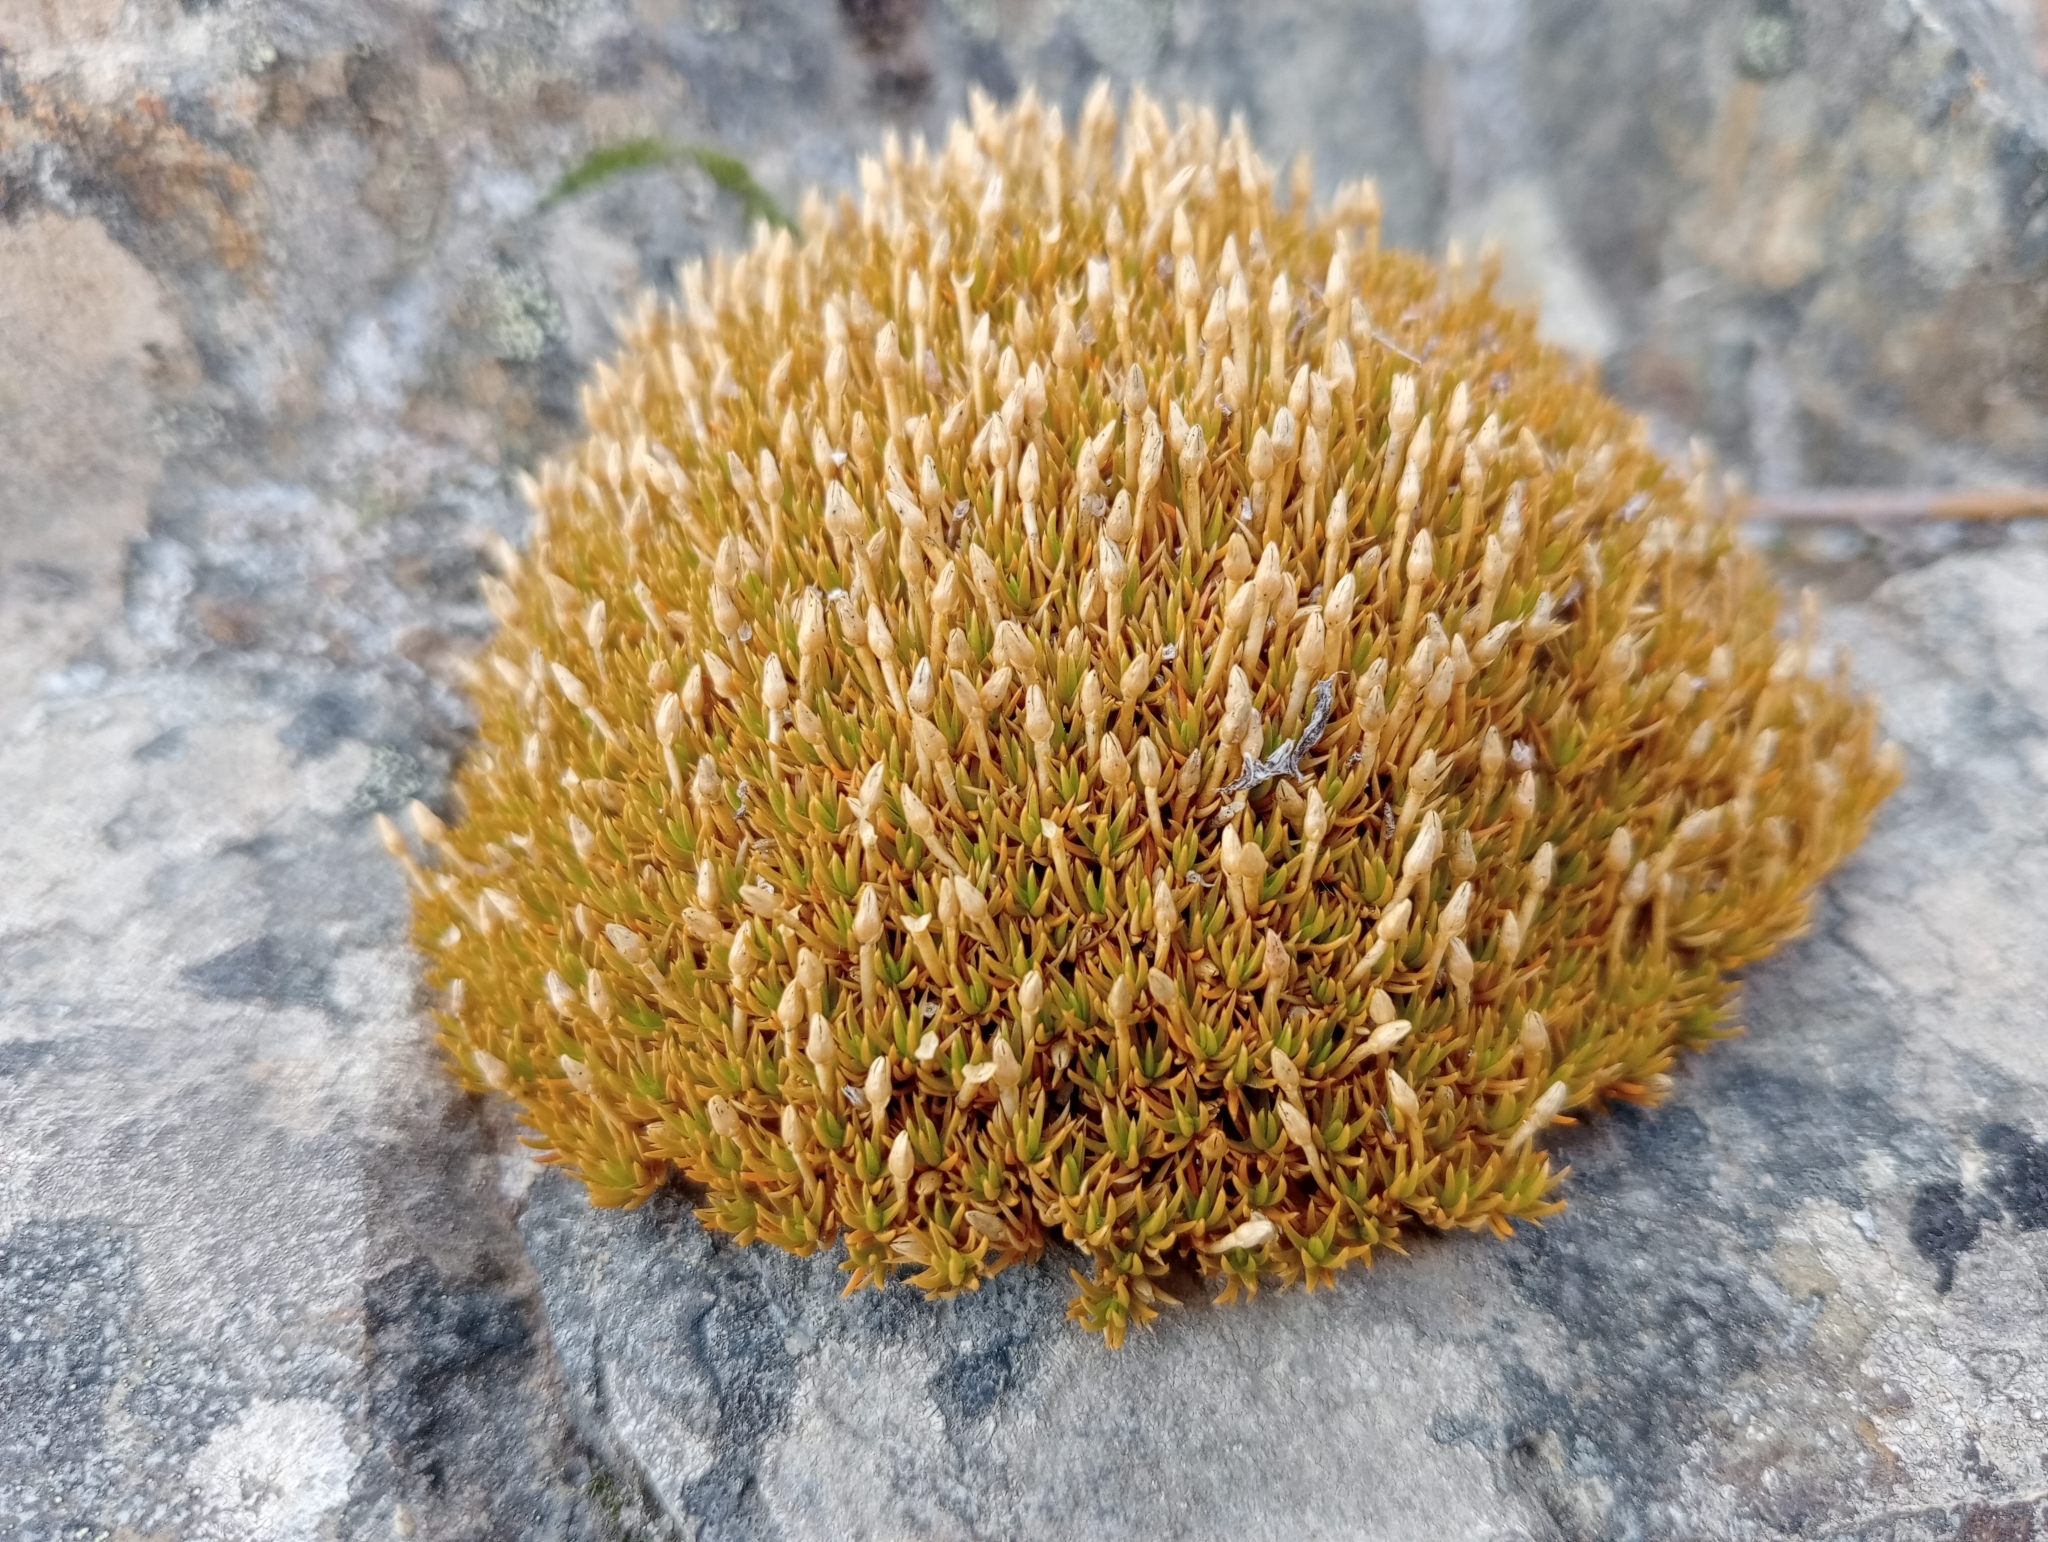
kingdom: Plantae
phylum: Tracheophyta
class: Magnoliopsida
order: Caryophyllales
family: Caryophyllaceae
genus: Scleranthus
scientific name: Scleranthus uniflorus
